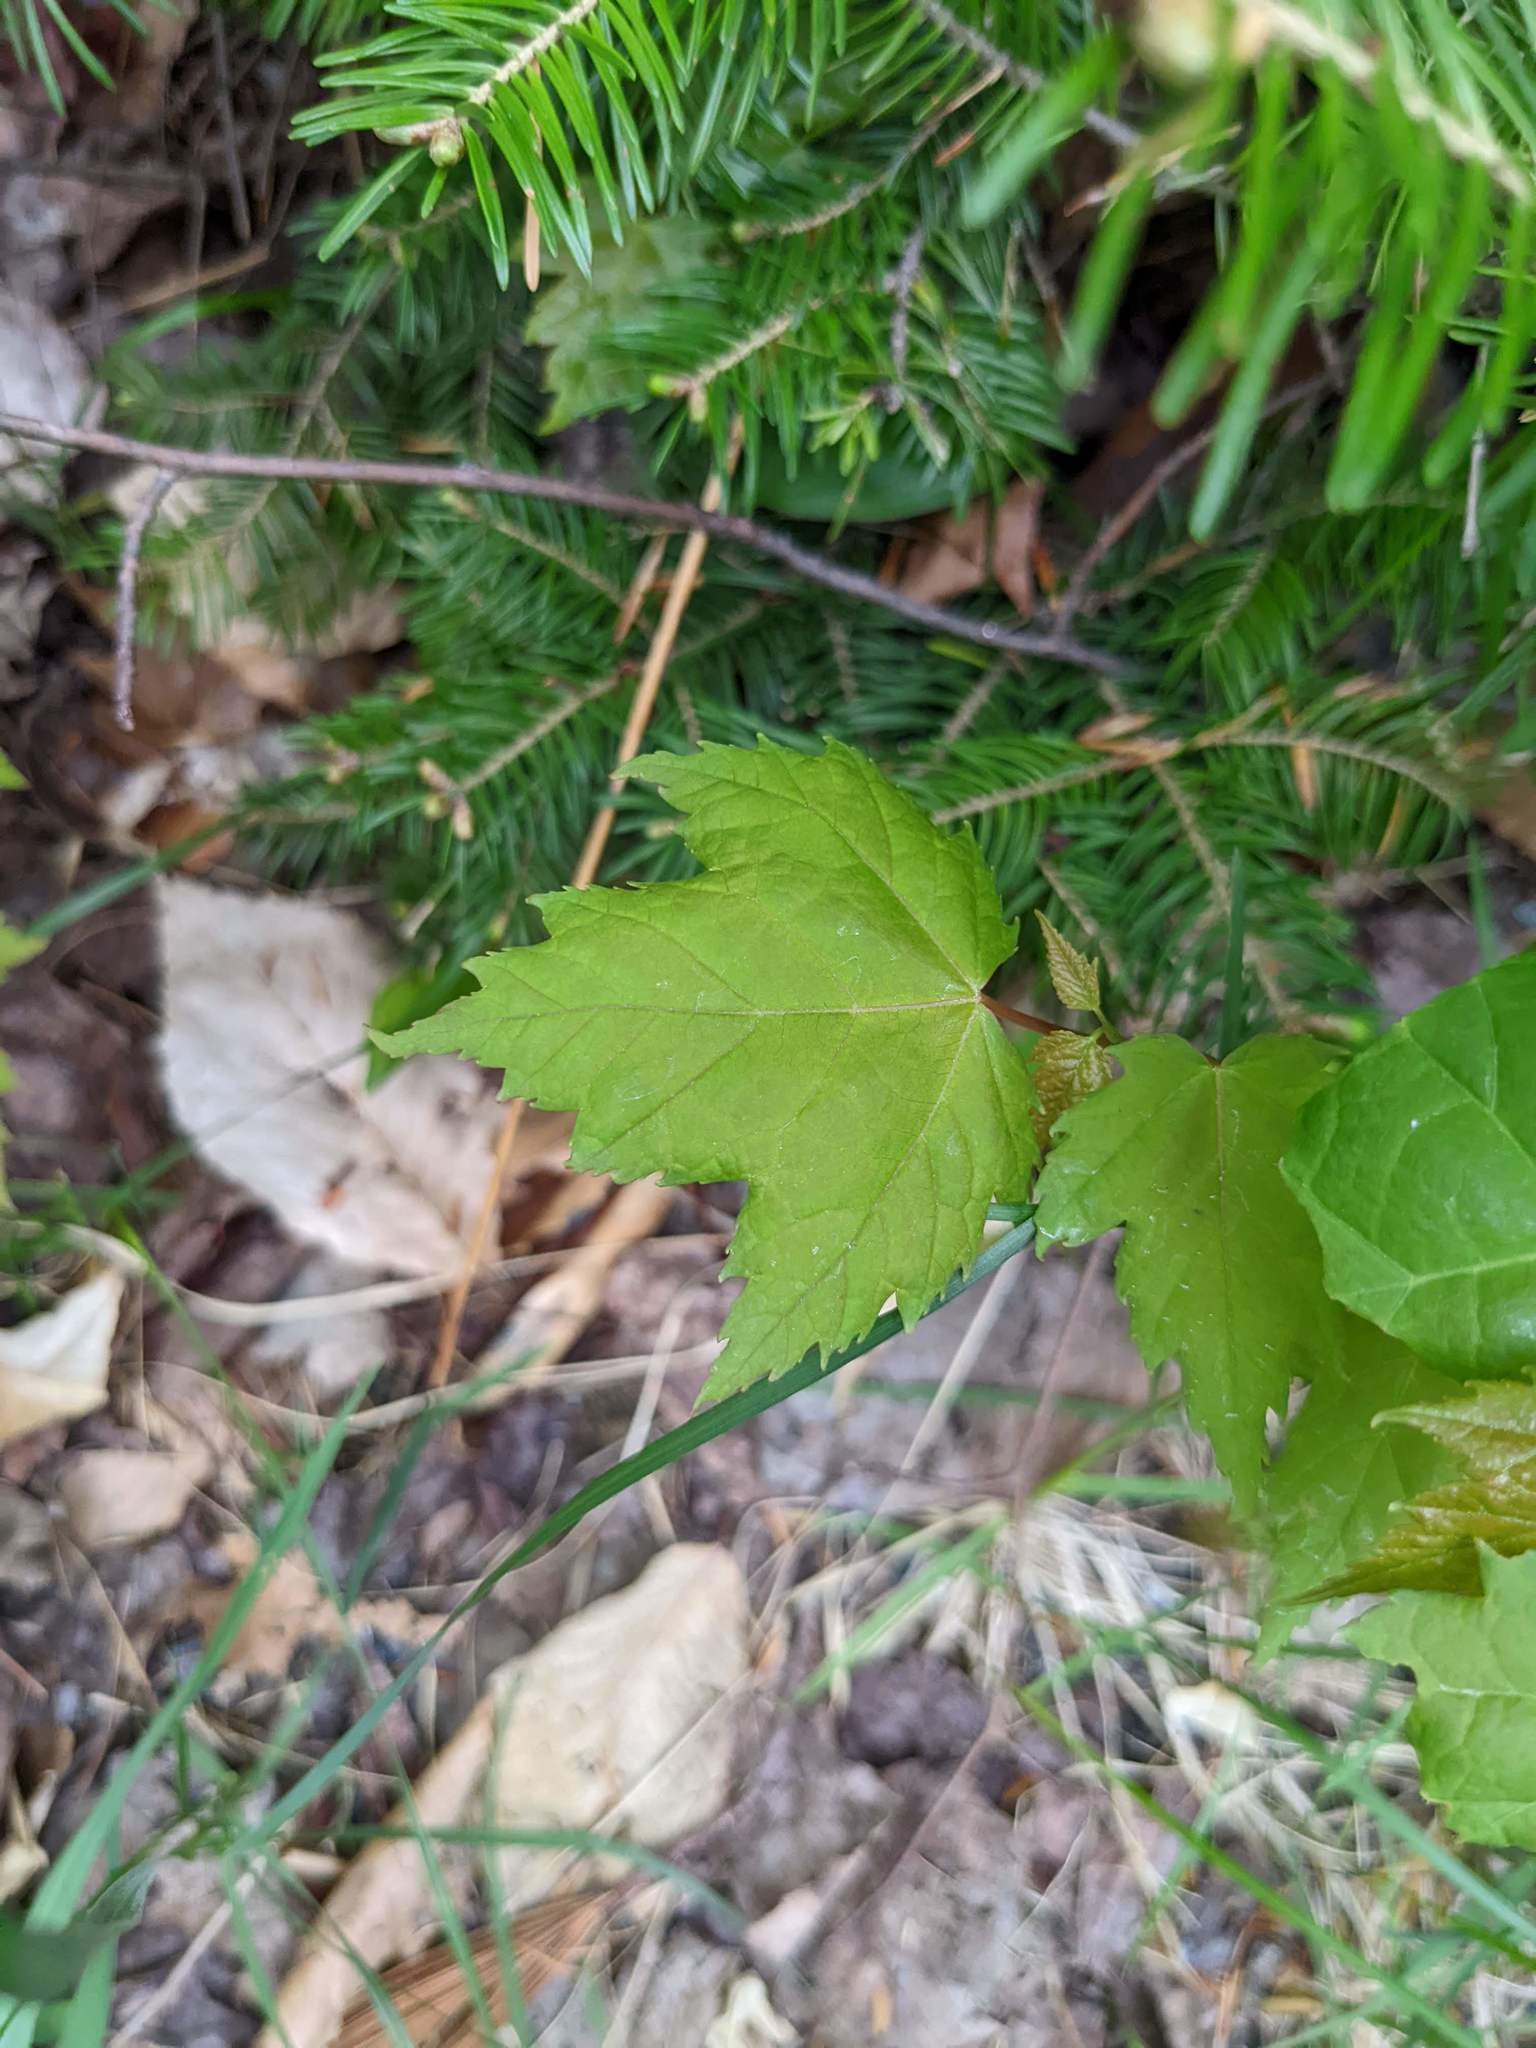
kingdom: Plantae
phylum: Tracheophyta
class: Magnoliopsida
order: Sapindales
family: Sapindaceae
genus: Acer
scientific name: Acer rubrum
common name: Red maple
